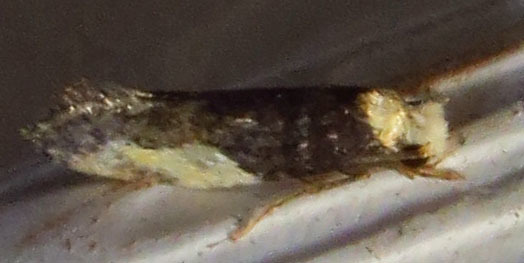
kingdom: Animalia
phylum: Arthropoda
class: Insecta
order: Lepidoptera
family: Tineidae
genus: Monopis
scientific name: Monopis longella
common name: Pavlovski's monopis moth
